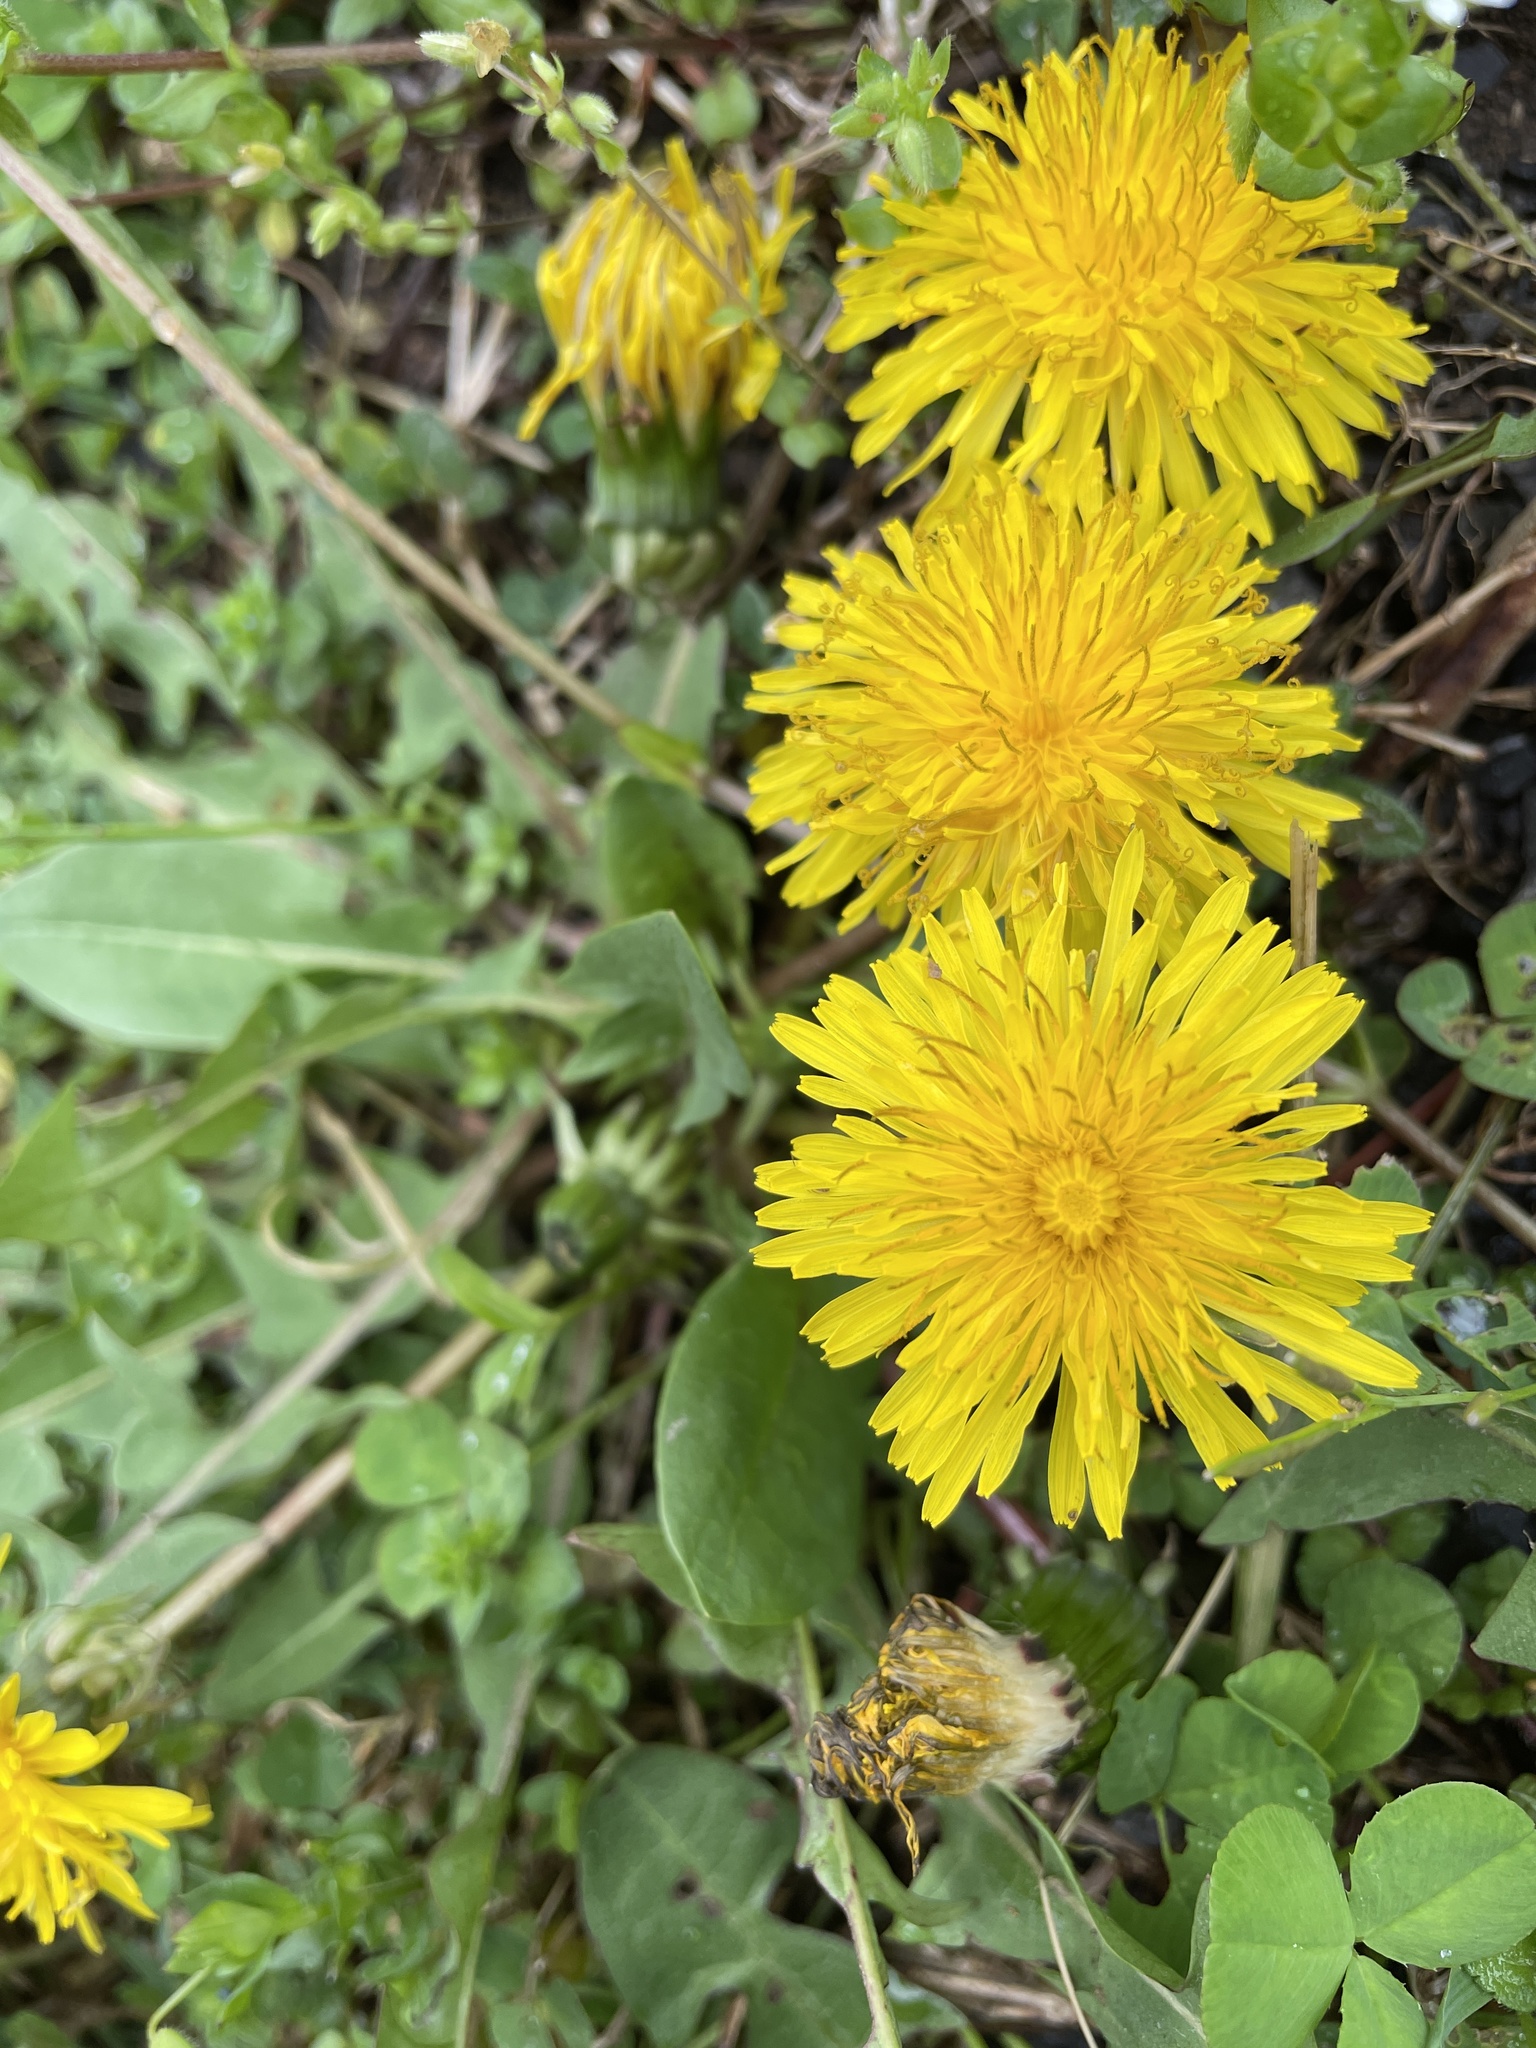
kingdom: Plantae
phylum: Tracheophyta
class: Magnoliopsida
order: Asterales
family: Asteraceae
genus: Taraxacum
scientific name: Taraxacum officinale
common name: Common dandelion
